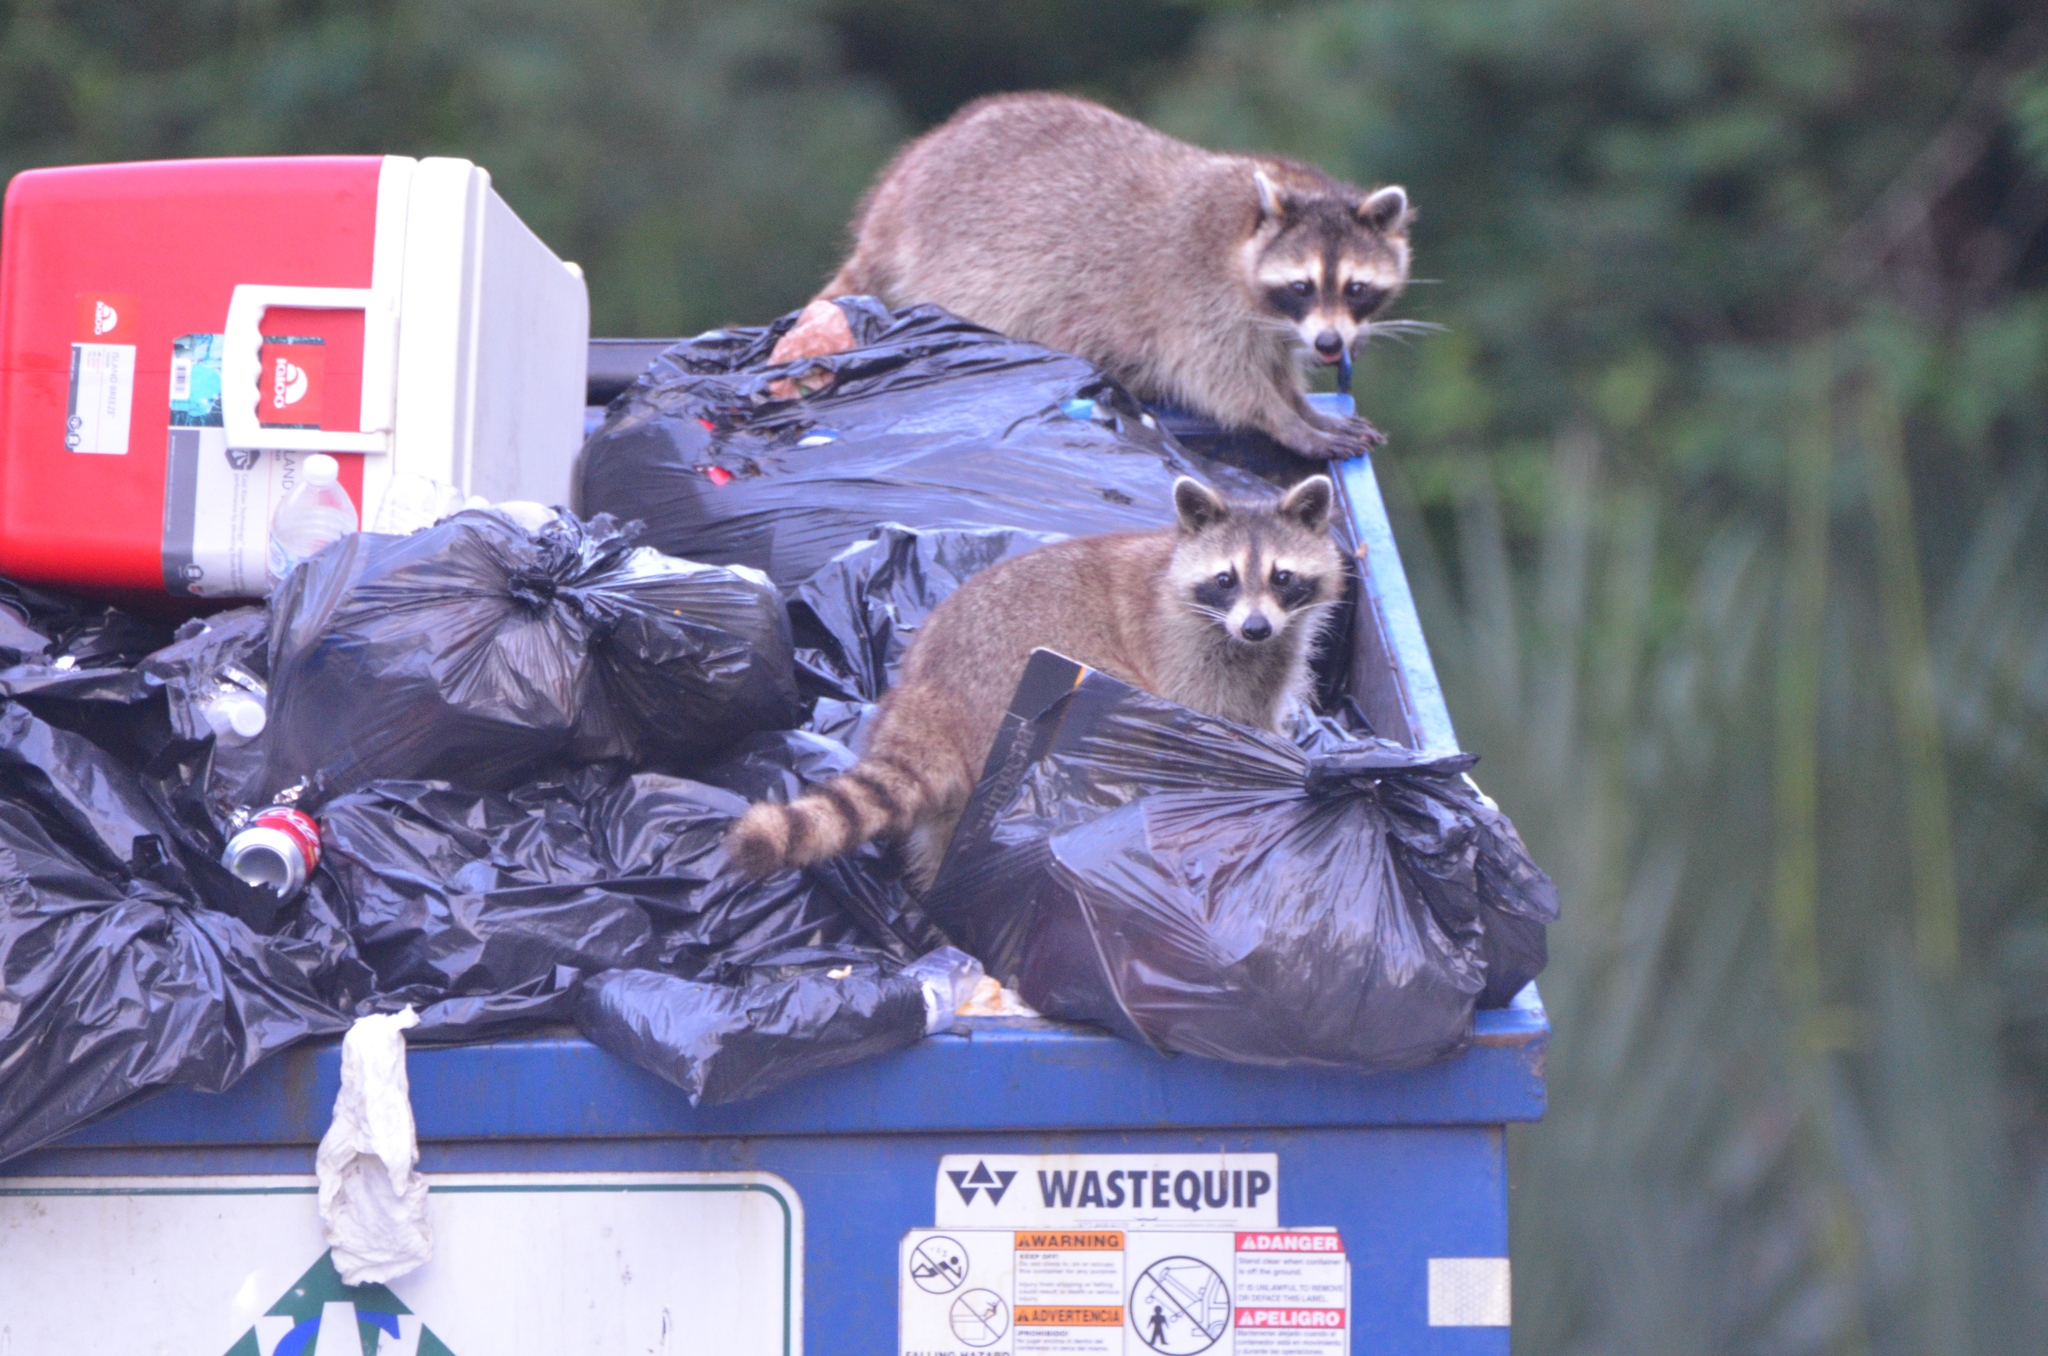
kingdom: Animalia
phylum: Chordata
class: Mammalia
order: Carnivora
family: Procyonidae
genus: Procyon
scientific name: Procyon lotor
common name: Raccoon
